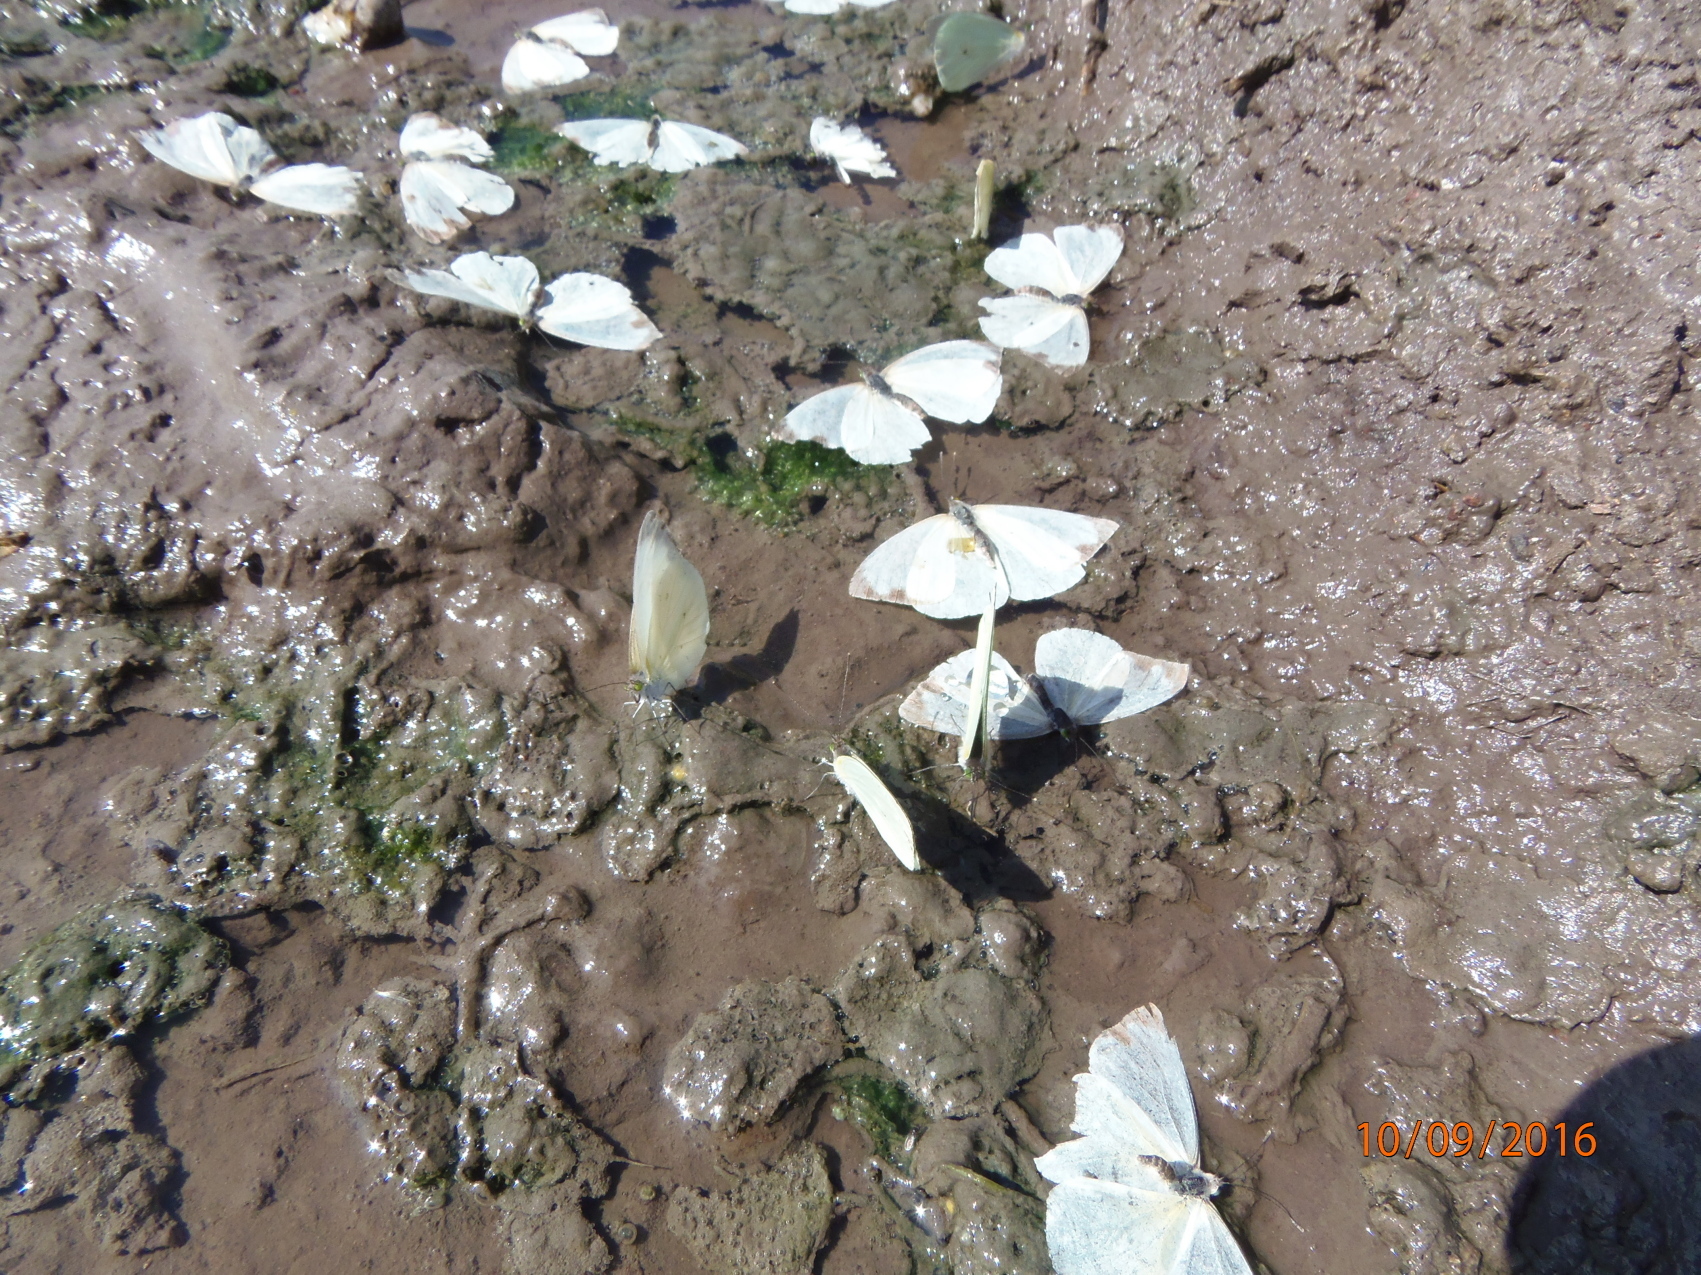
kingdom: Animalia
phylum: Arthropoda
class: Insecta
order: Lepidoptera
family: Pieridae
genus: Leptophobia
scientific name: Leptophobia aripa
